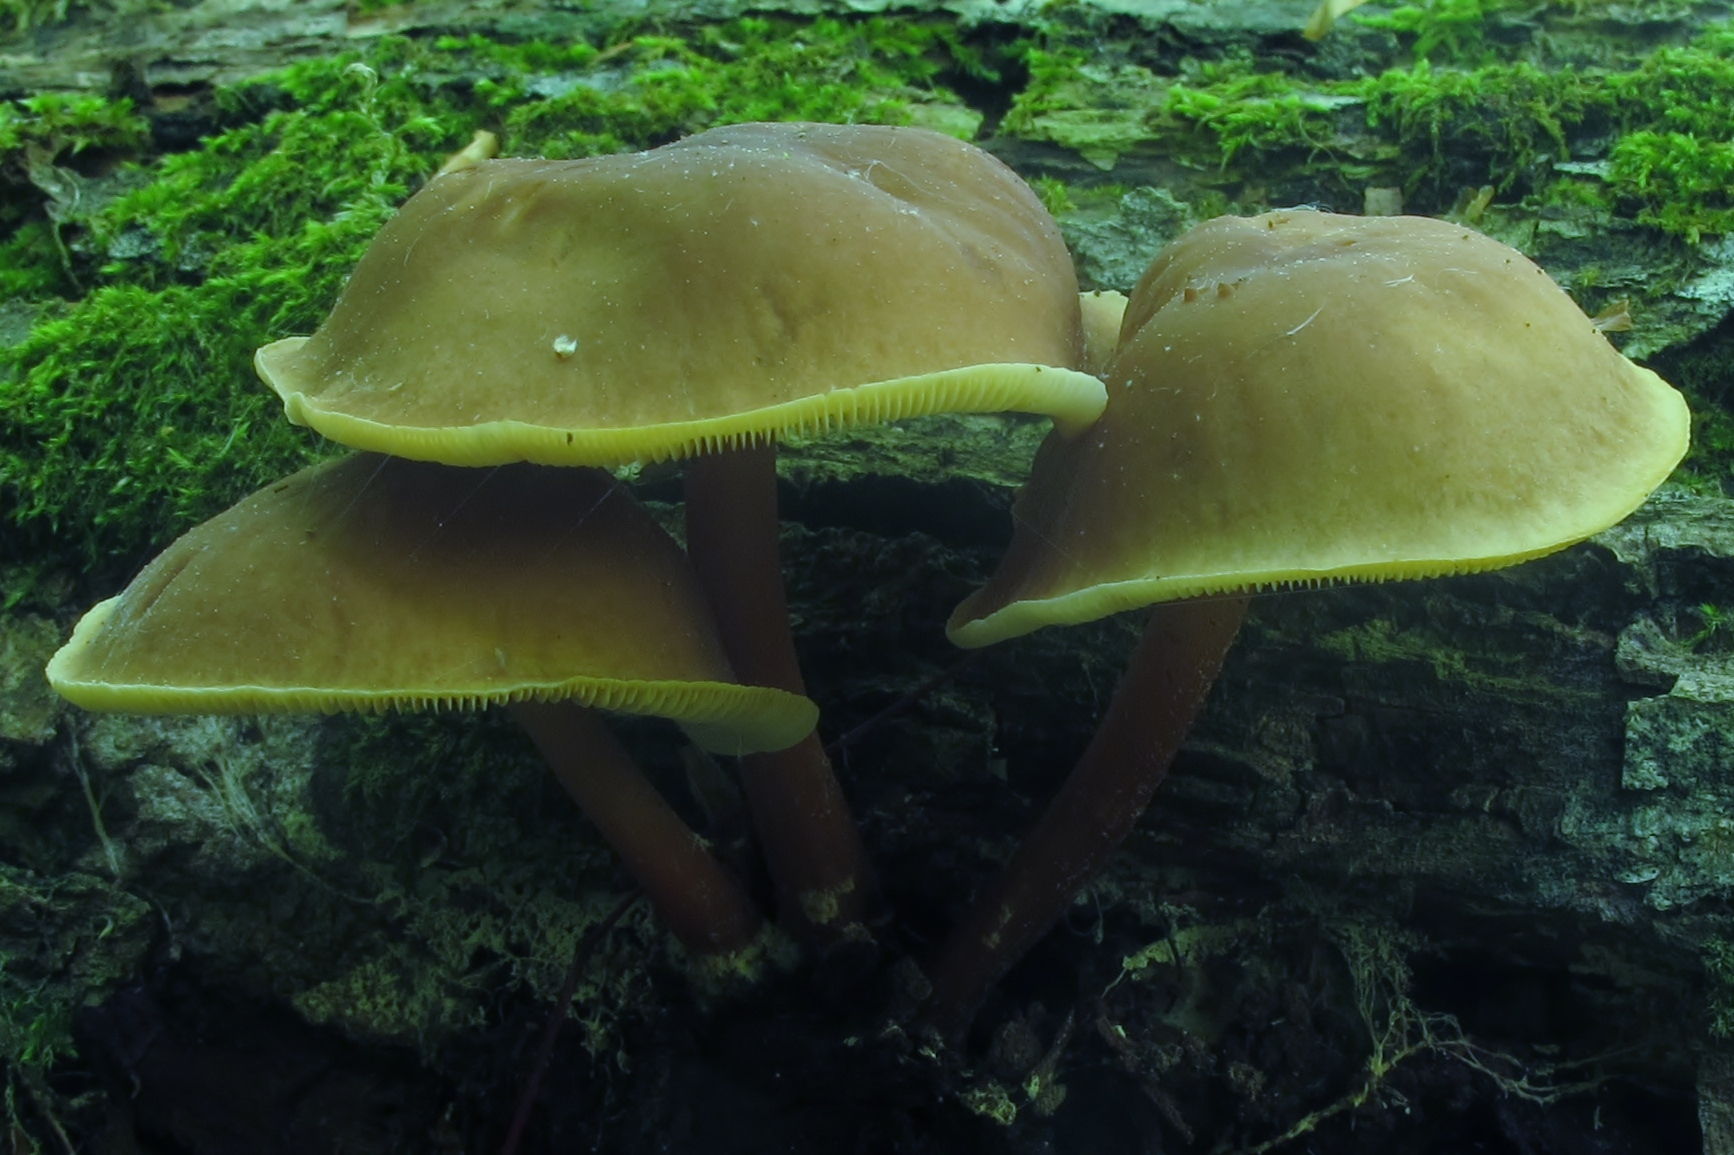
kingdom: Fungi
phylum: Basidiomycota
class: Agaricomycetes
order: Agaricales
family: Omphalotaceae
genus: Gymnopus
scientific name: Gymnopus earleae
